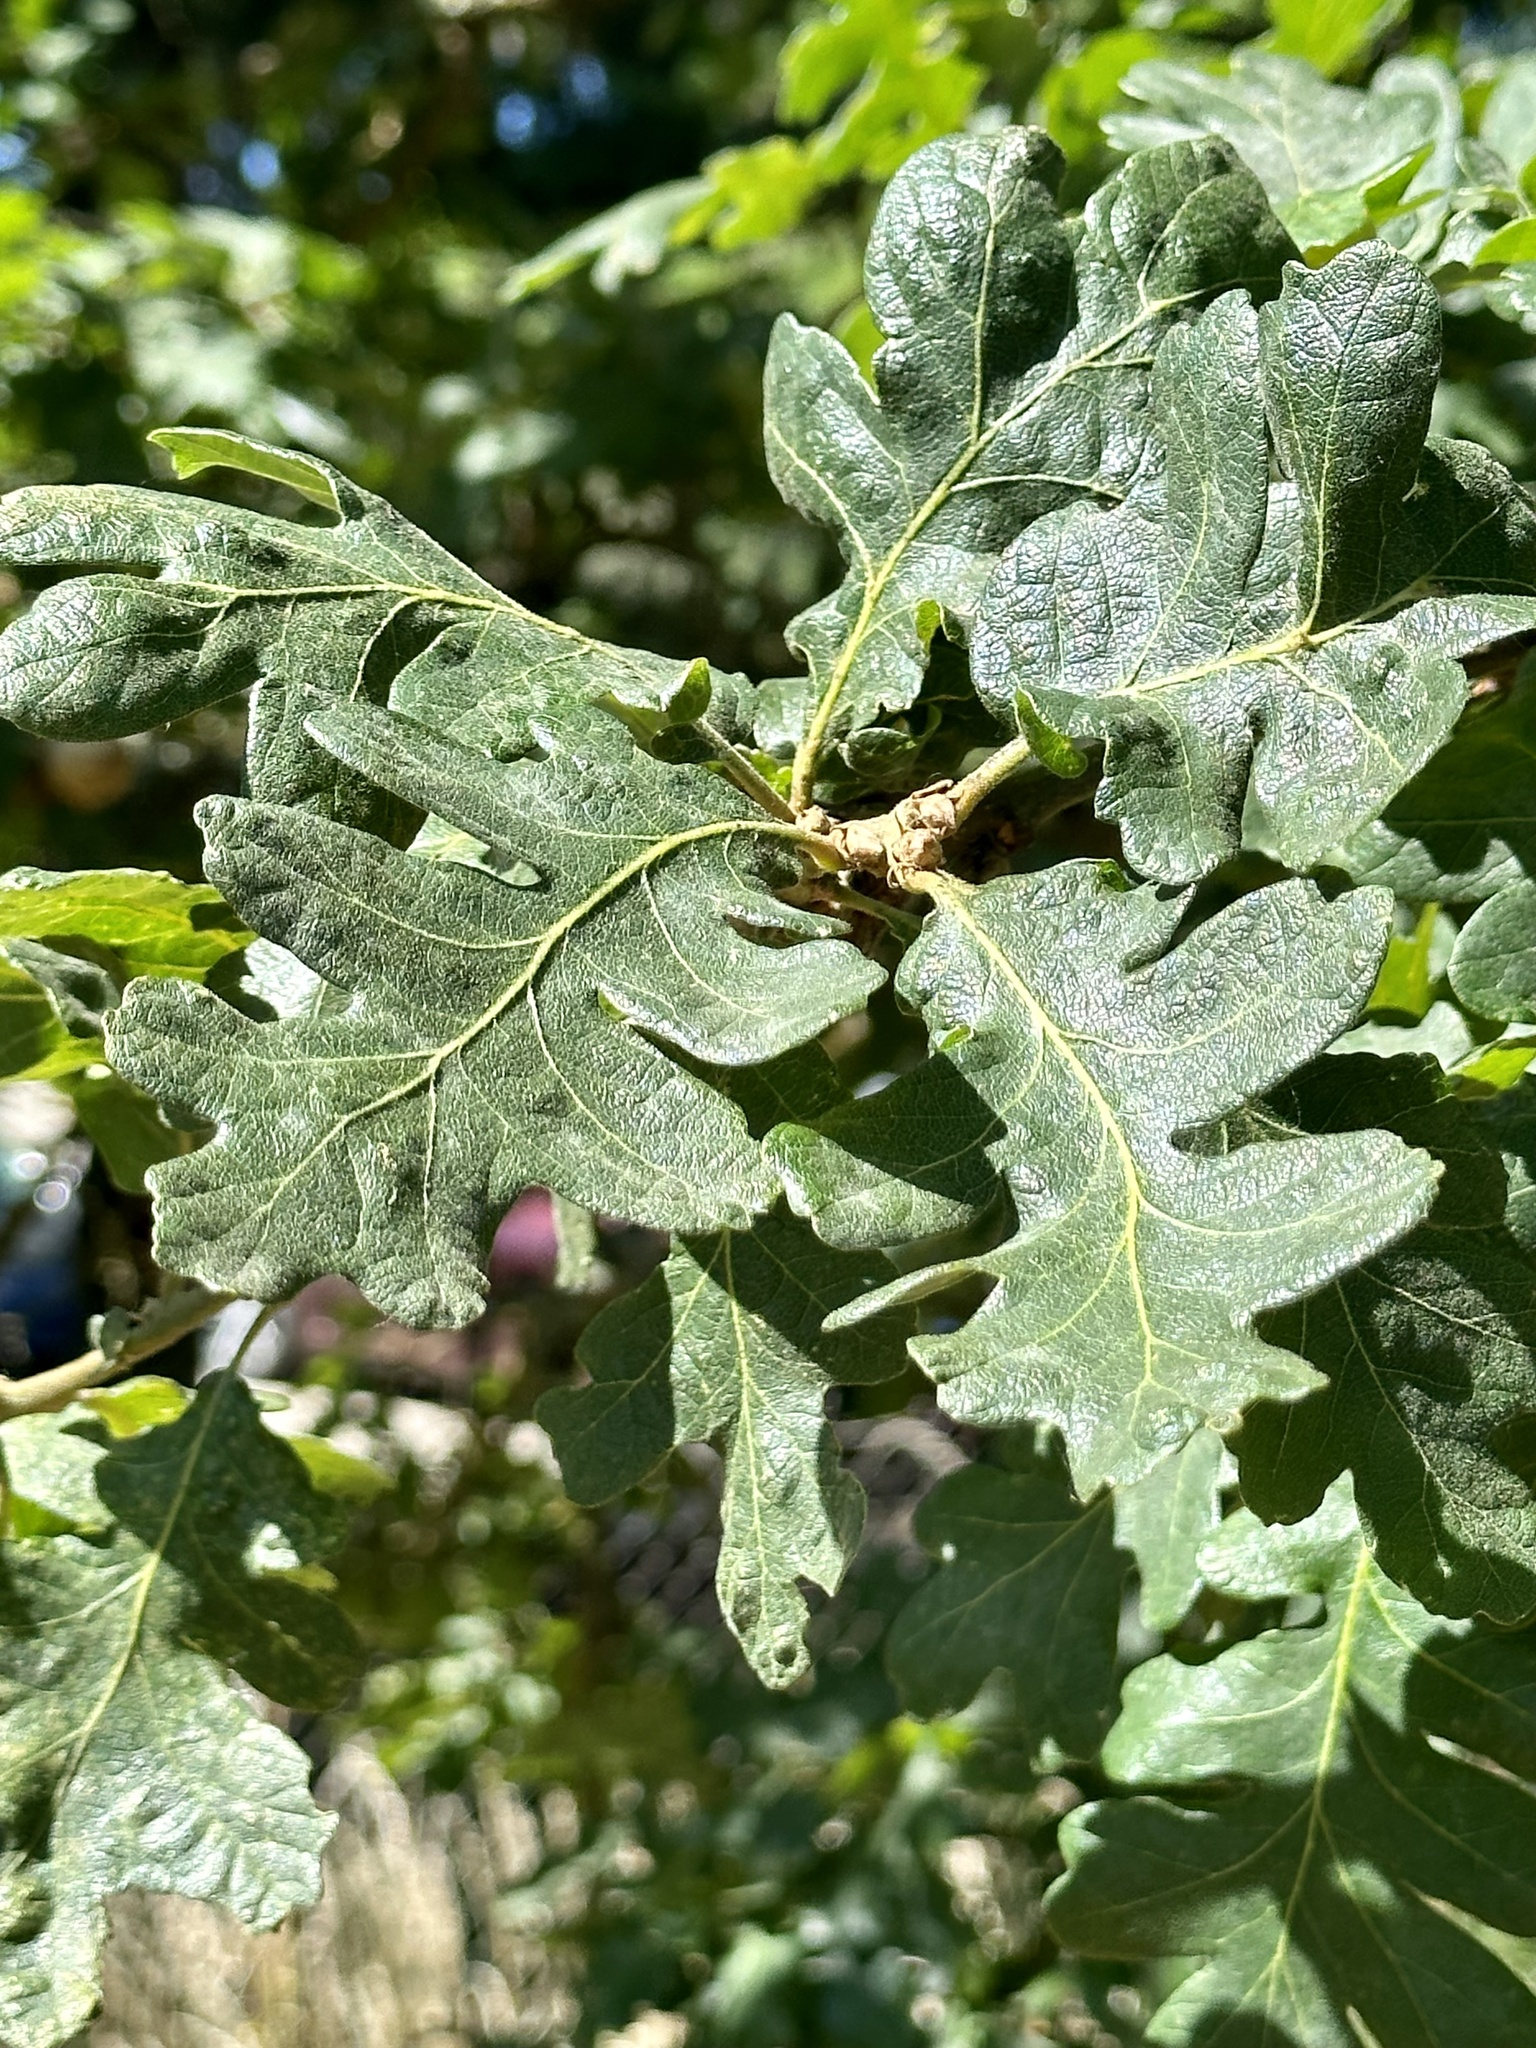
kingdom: Plantae
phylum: Tracheophyta
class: Magnoliopsida
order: Fagales
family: Fagaceae
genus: Quercus
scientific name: Quercus garryana
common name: Garry oak
